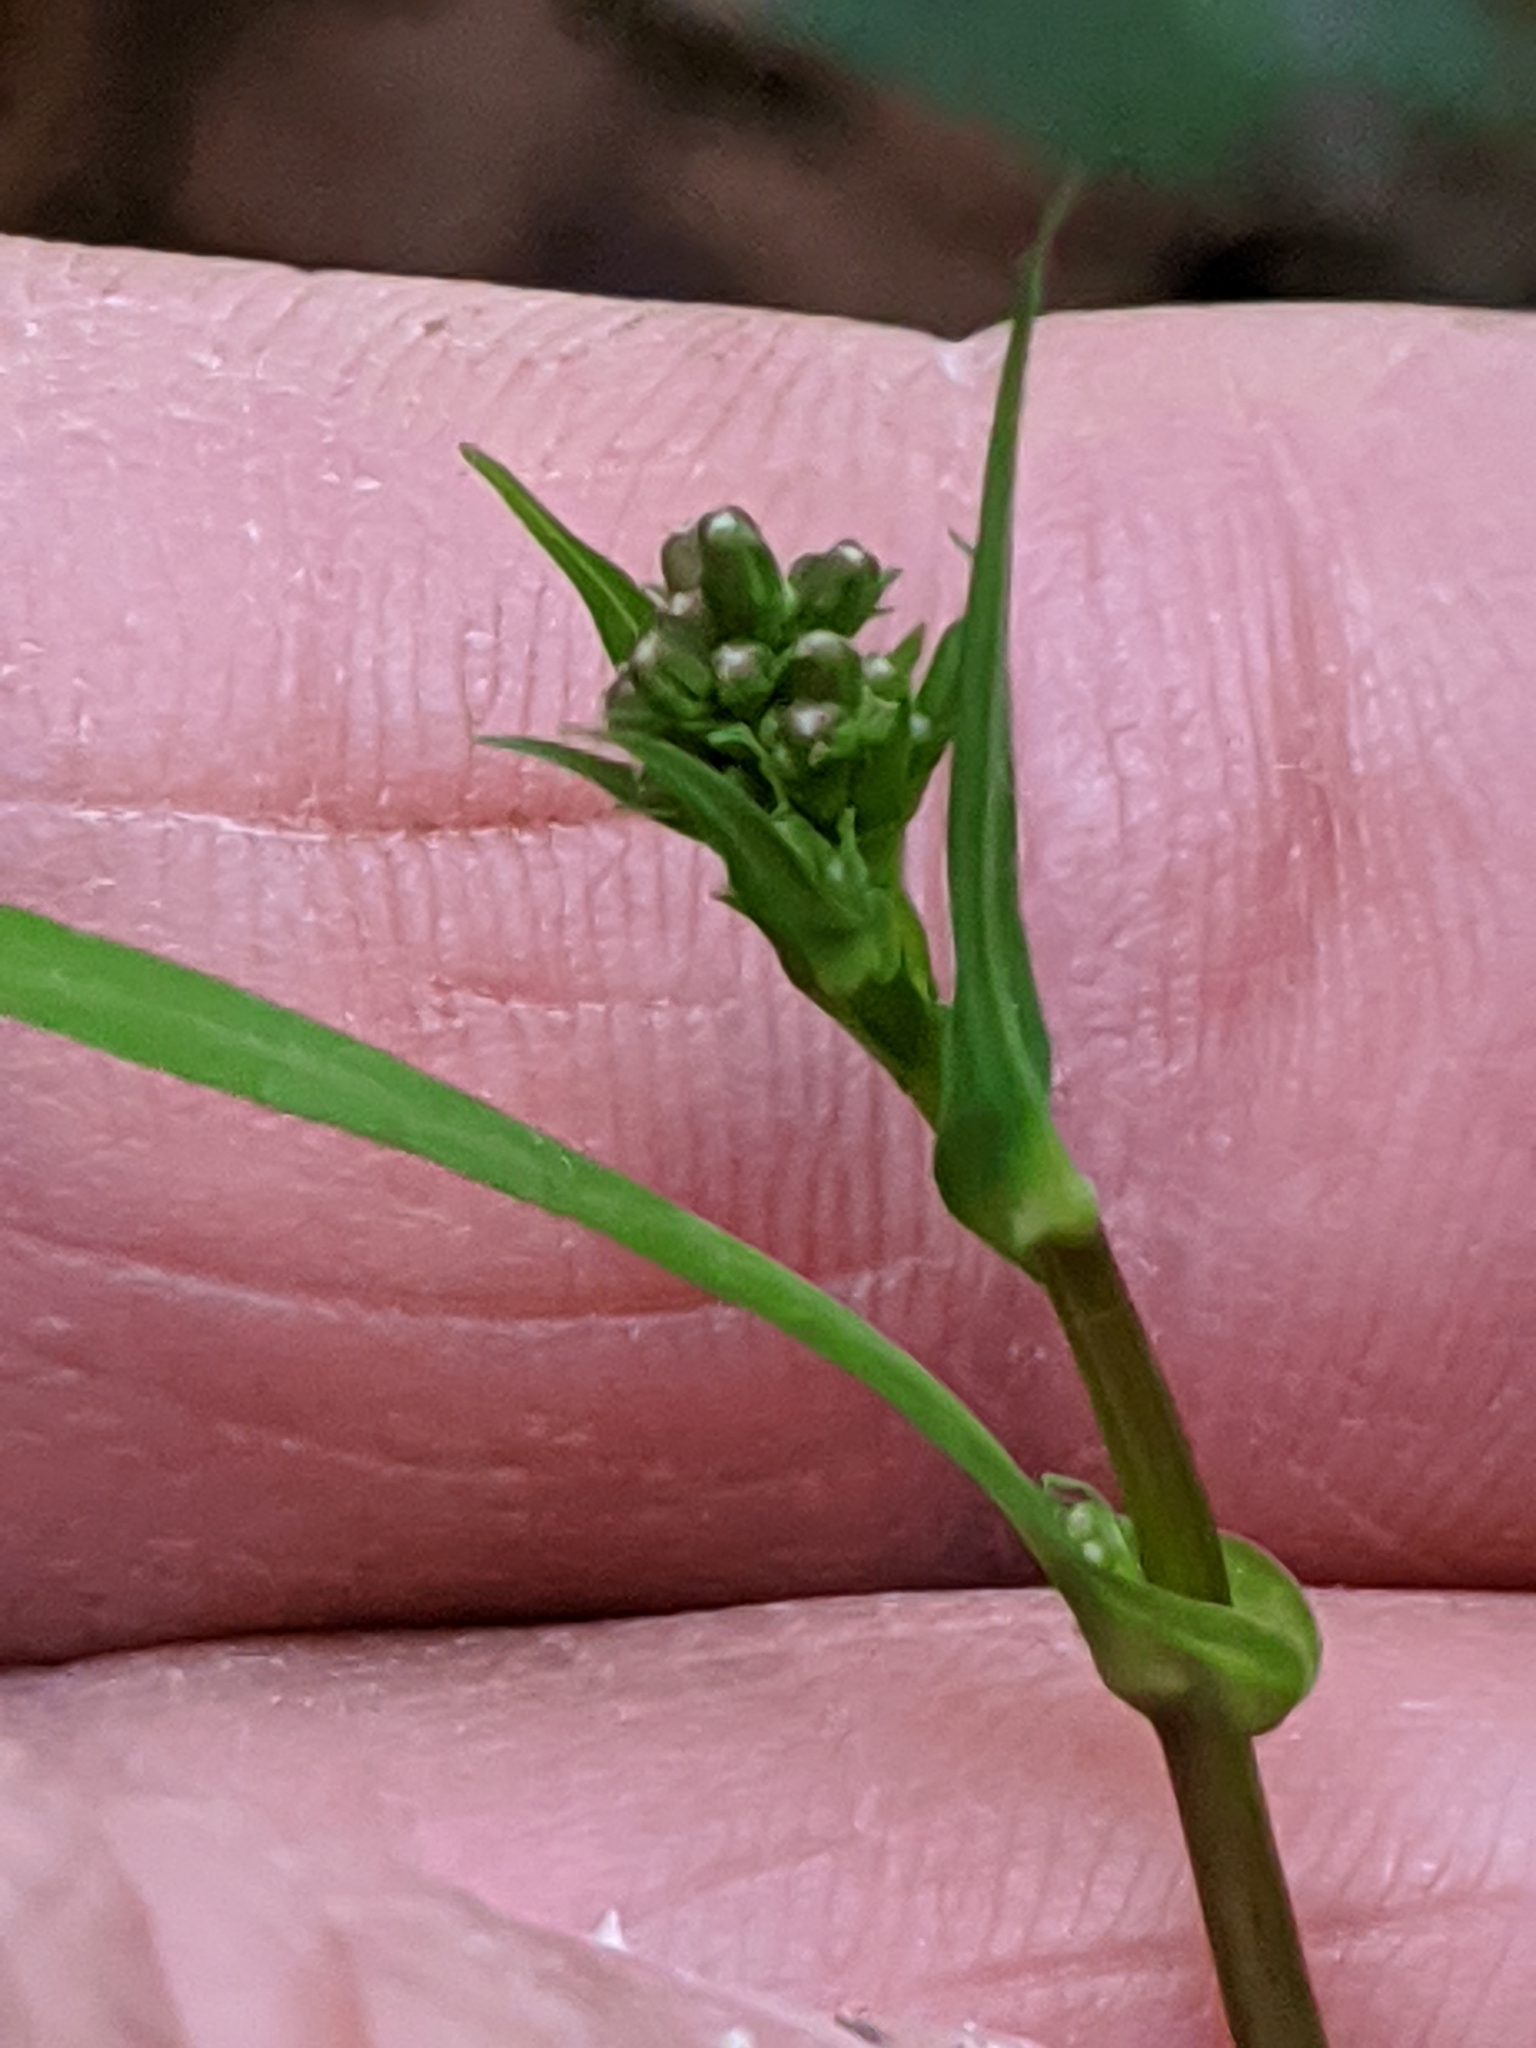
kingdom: Plantae
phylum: Tracheophyta
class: Magnoliopsida
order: Asterales
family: Asteraceae
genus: Mycelis
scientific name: Mycelis muralis
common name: Wall lettuce
